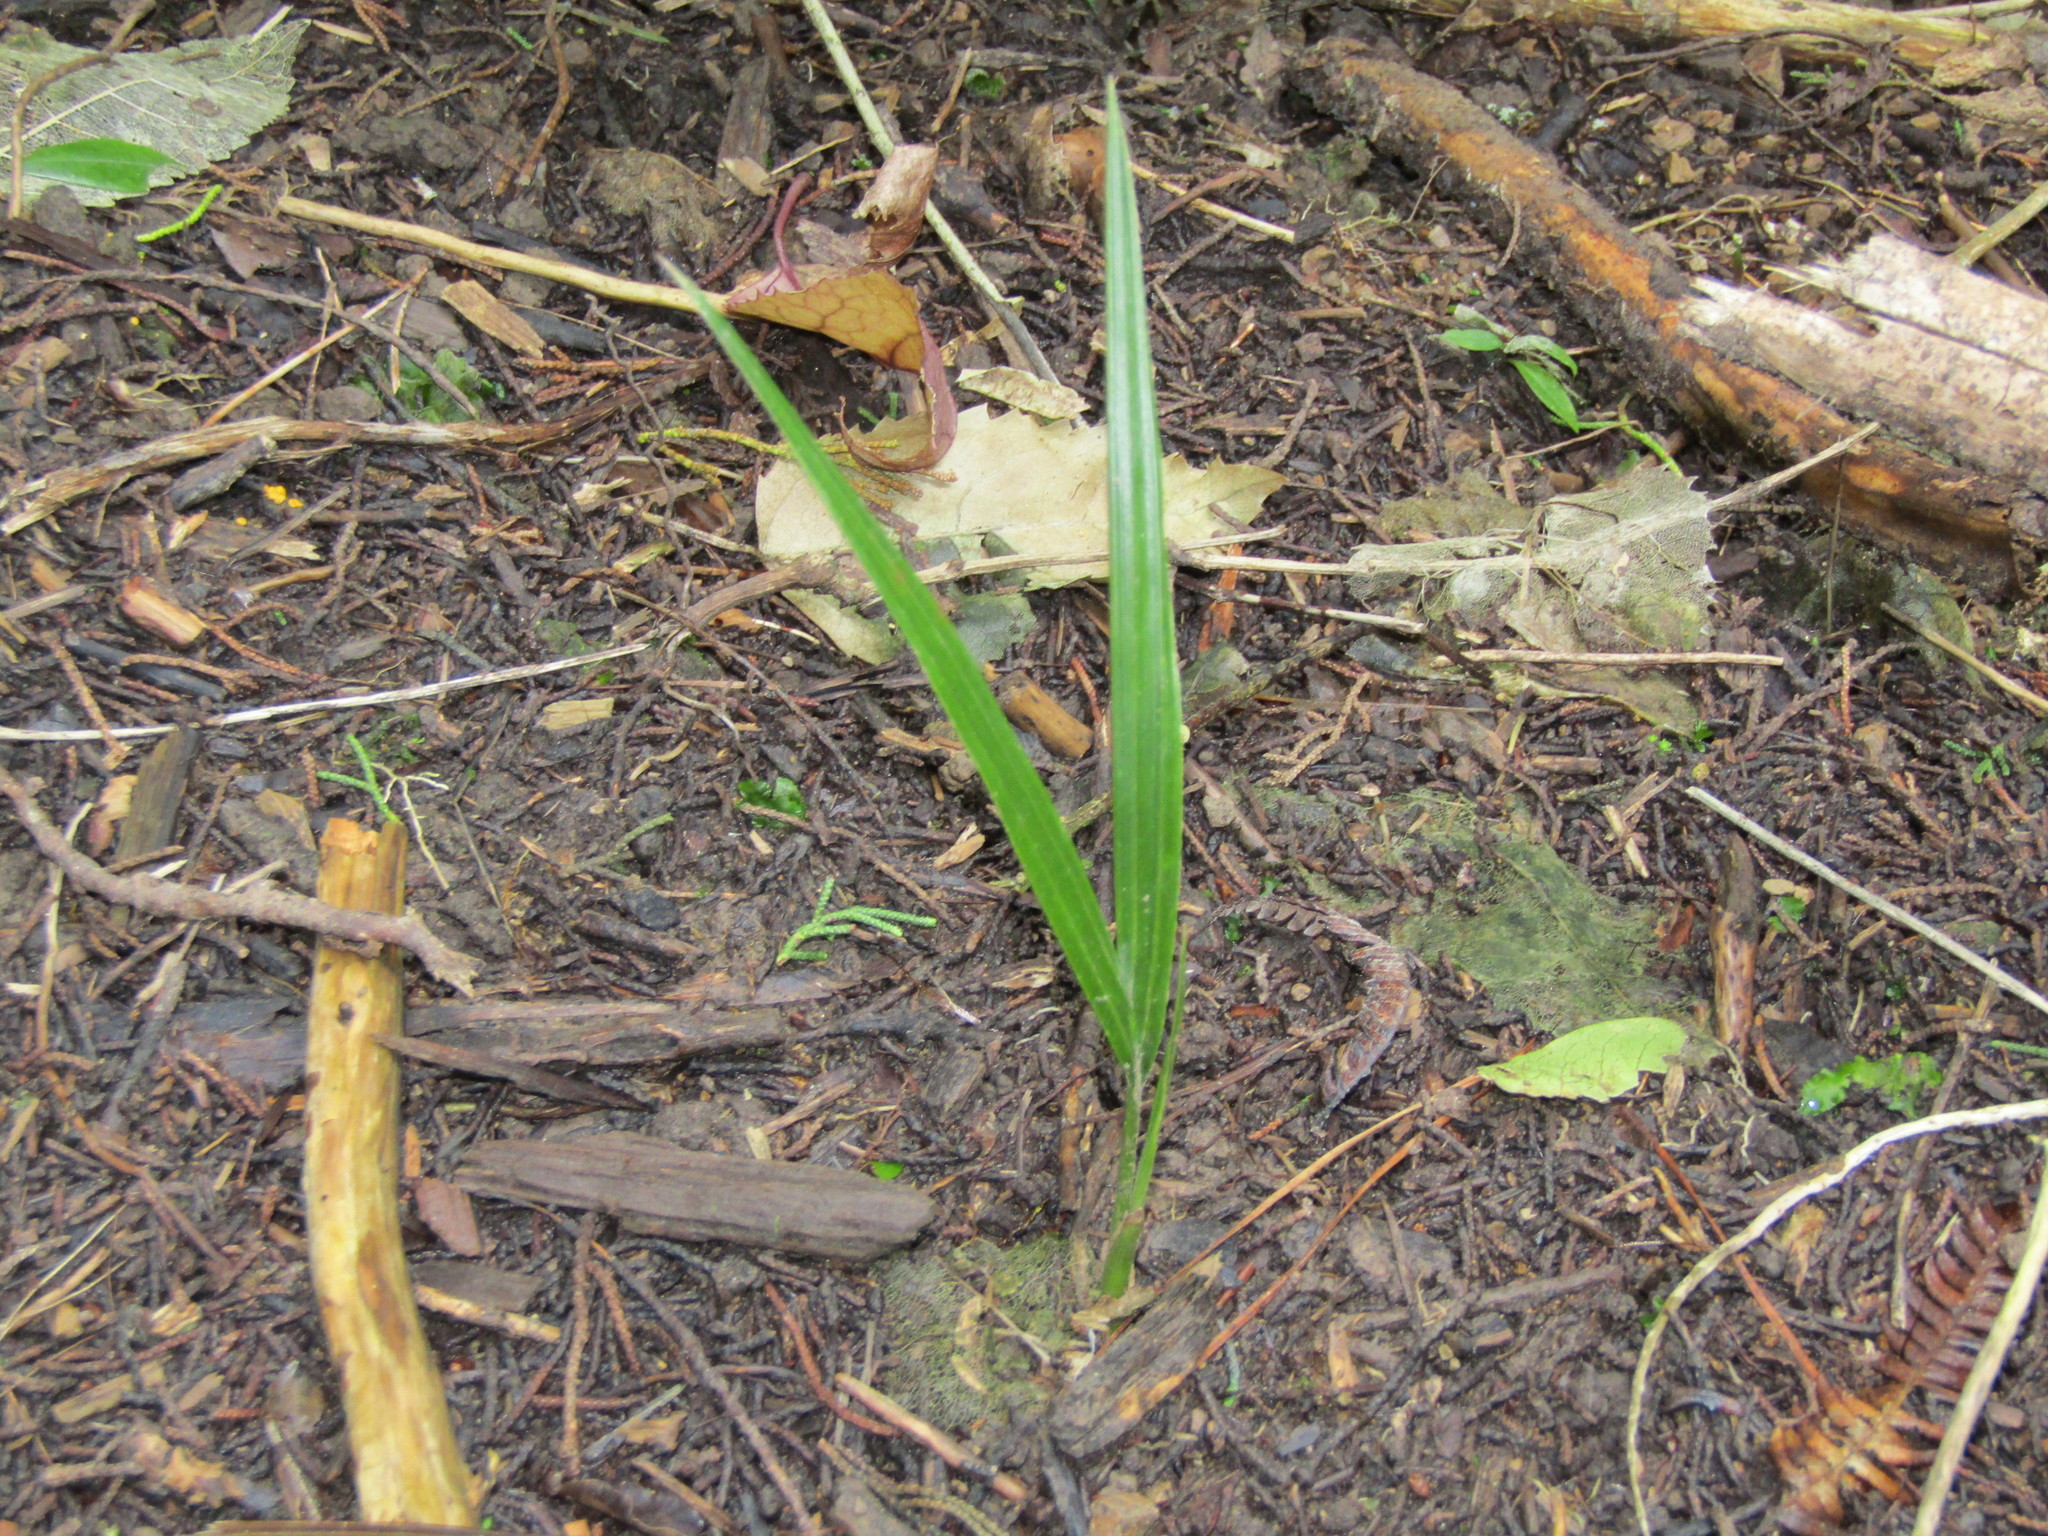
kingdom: Plantae
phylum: Tracheophyta
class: Liliopsida
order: Arecales
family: Arecaceae
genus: Rhopalostylis
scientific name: Rhopalostylis sapida
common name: Feather-duster palm
